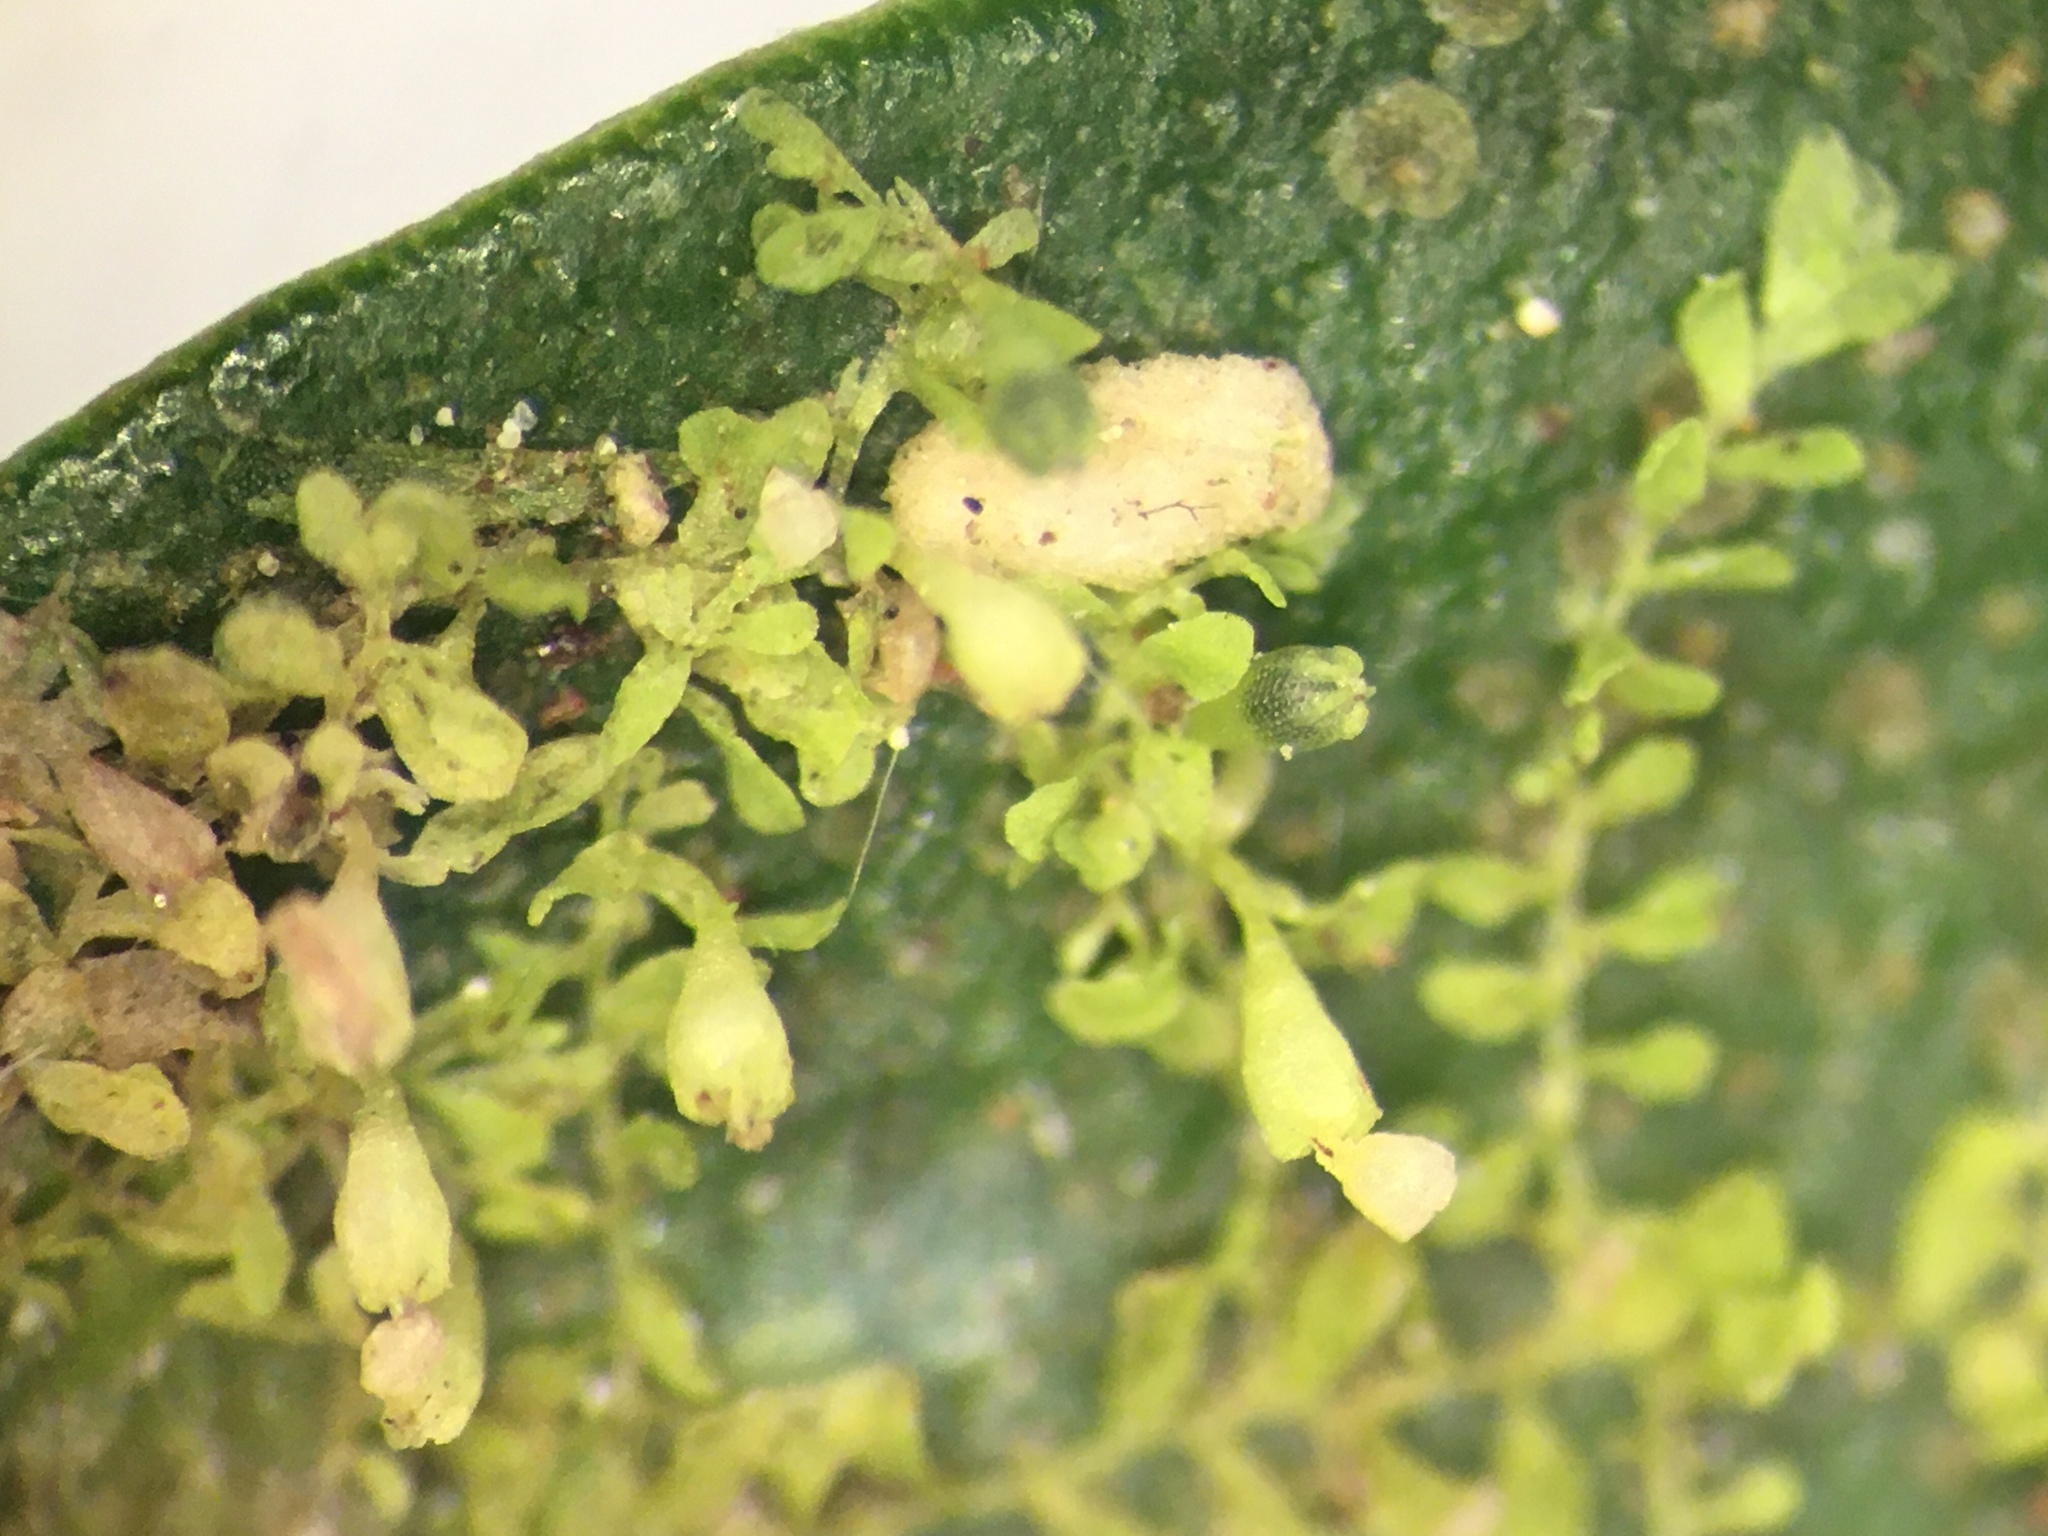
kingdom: Plantae
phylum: Marchantiophyta
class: Jungermanniopsida
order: Porellales
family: Lejeuneaceae
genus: Siphonolejeunea
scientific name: Siphonolejeunea nudipes
